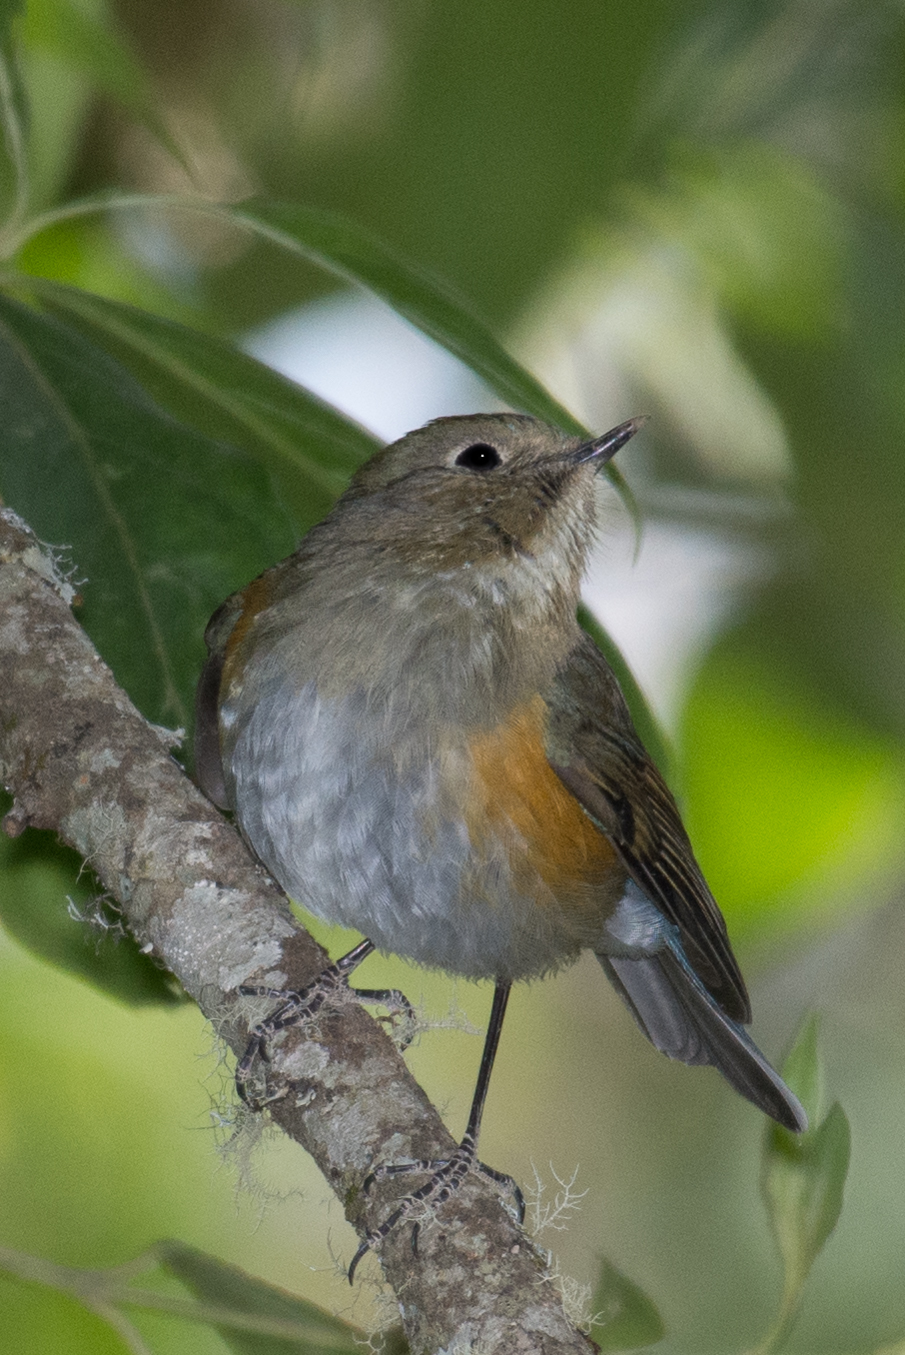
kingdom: Animalia
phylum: Chordata
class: Aves
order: Passeriformes
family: Muscicapidae
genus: Tarsiger
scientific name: Tarsiger rufilatus
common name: Himalayan bluetail
